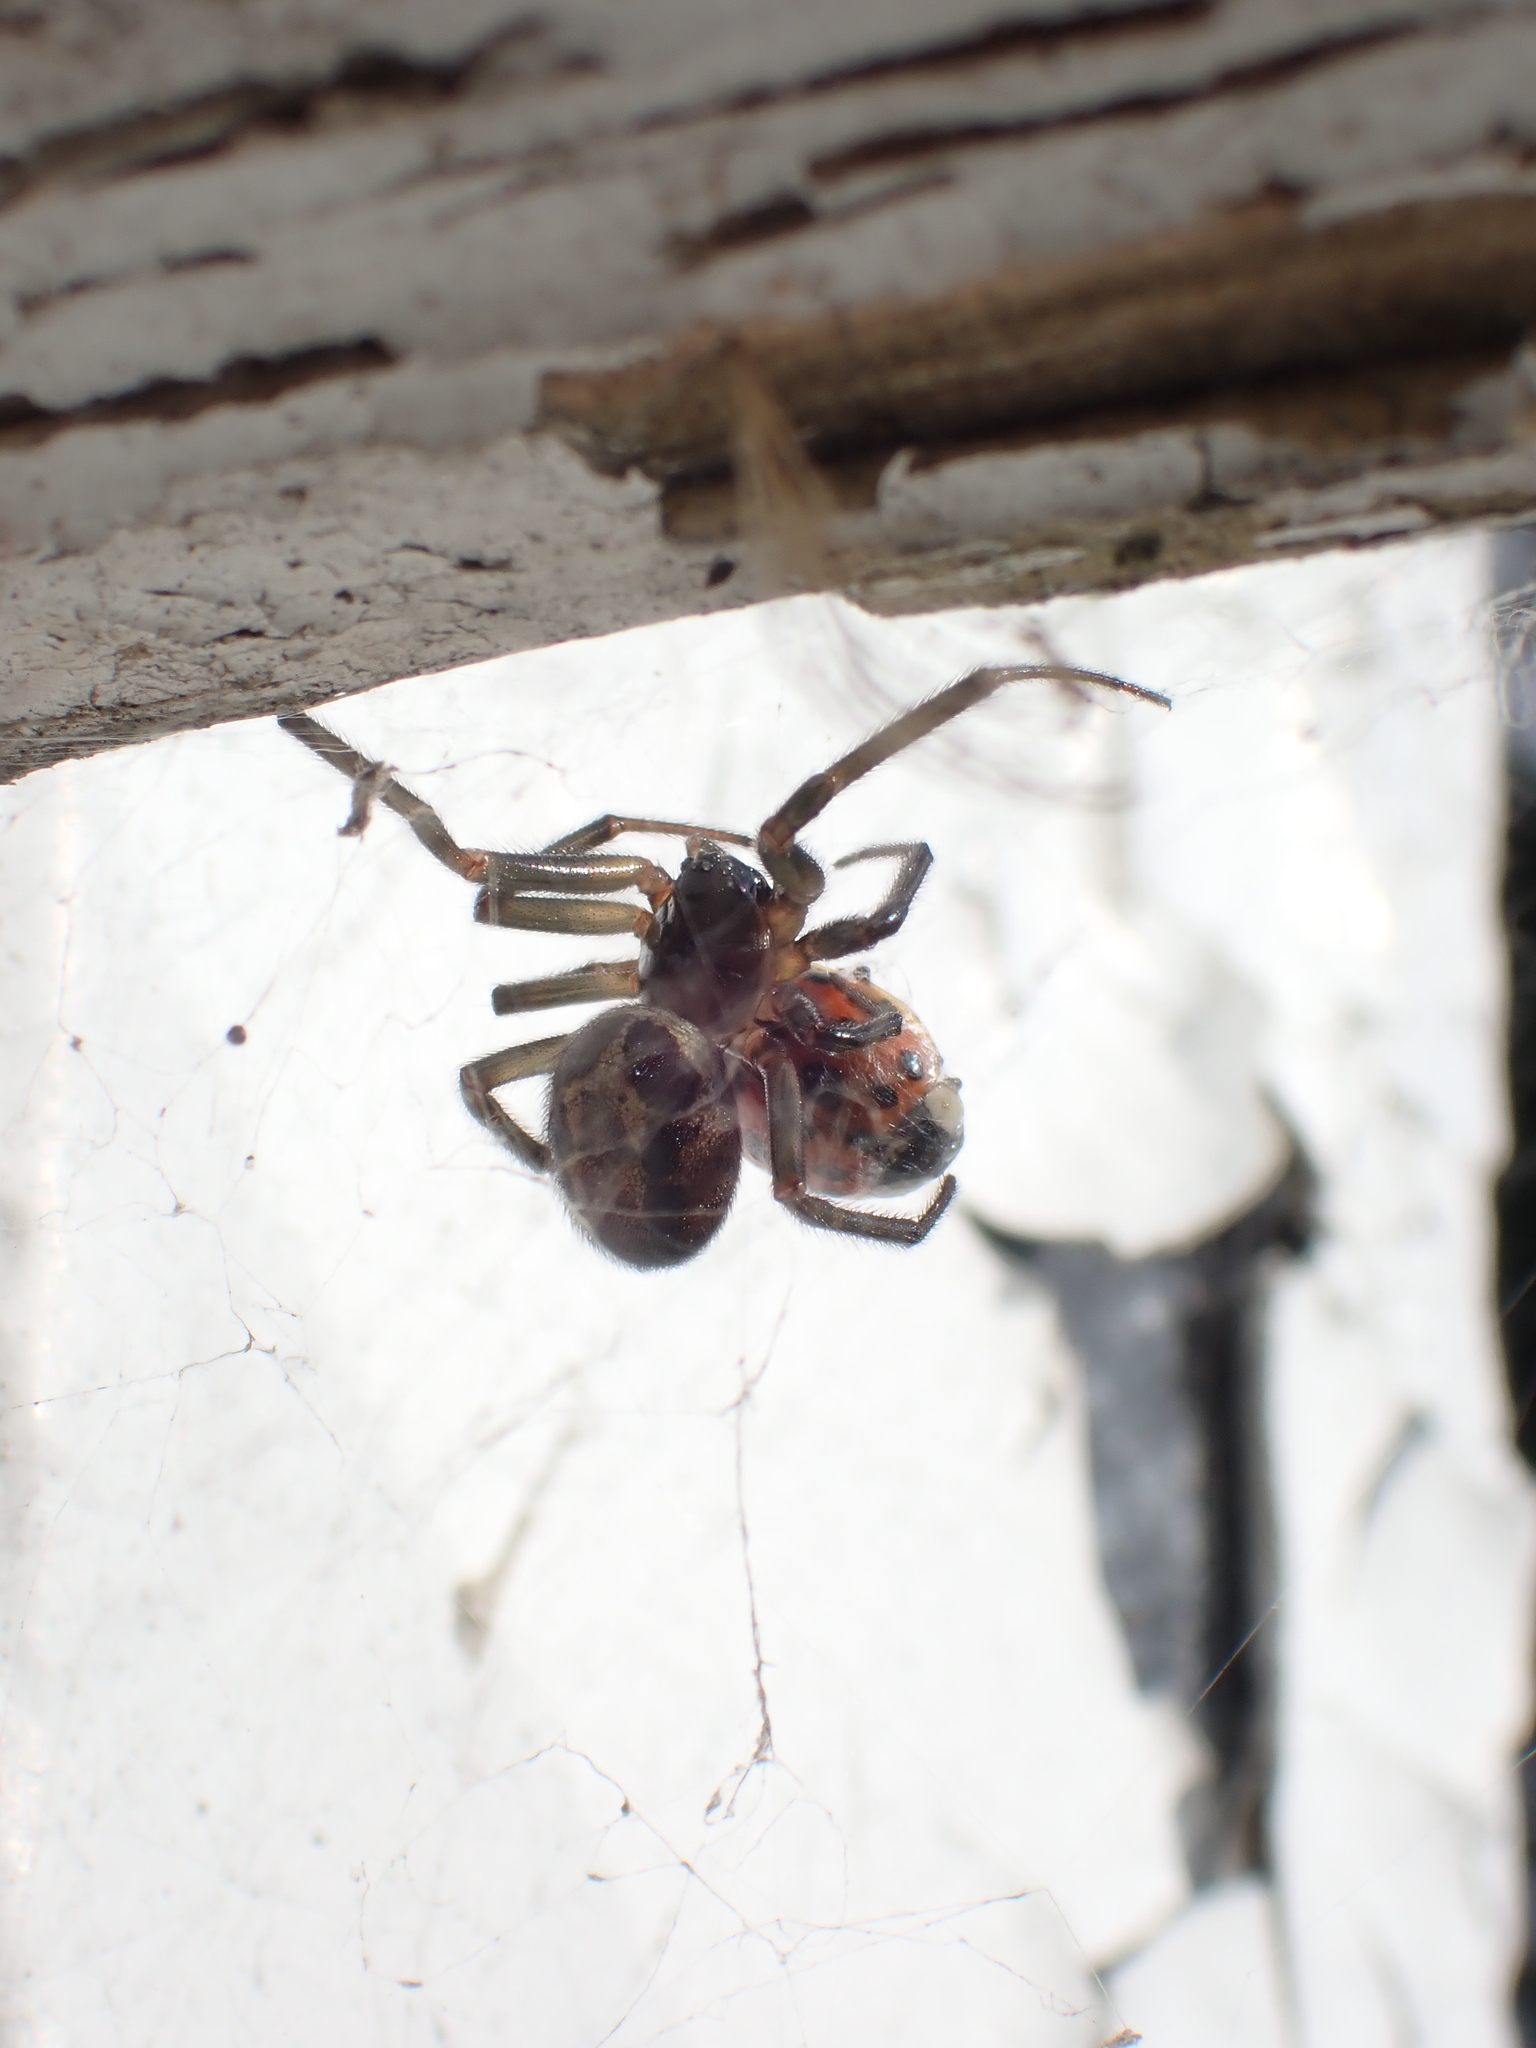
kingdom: Animalia
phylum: Arthropoda
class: Arachnida
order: Araneae
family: Theridiidae
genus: Steatoda
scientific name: Steatoda nobilis
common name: Cobweb weaver
